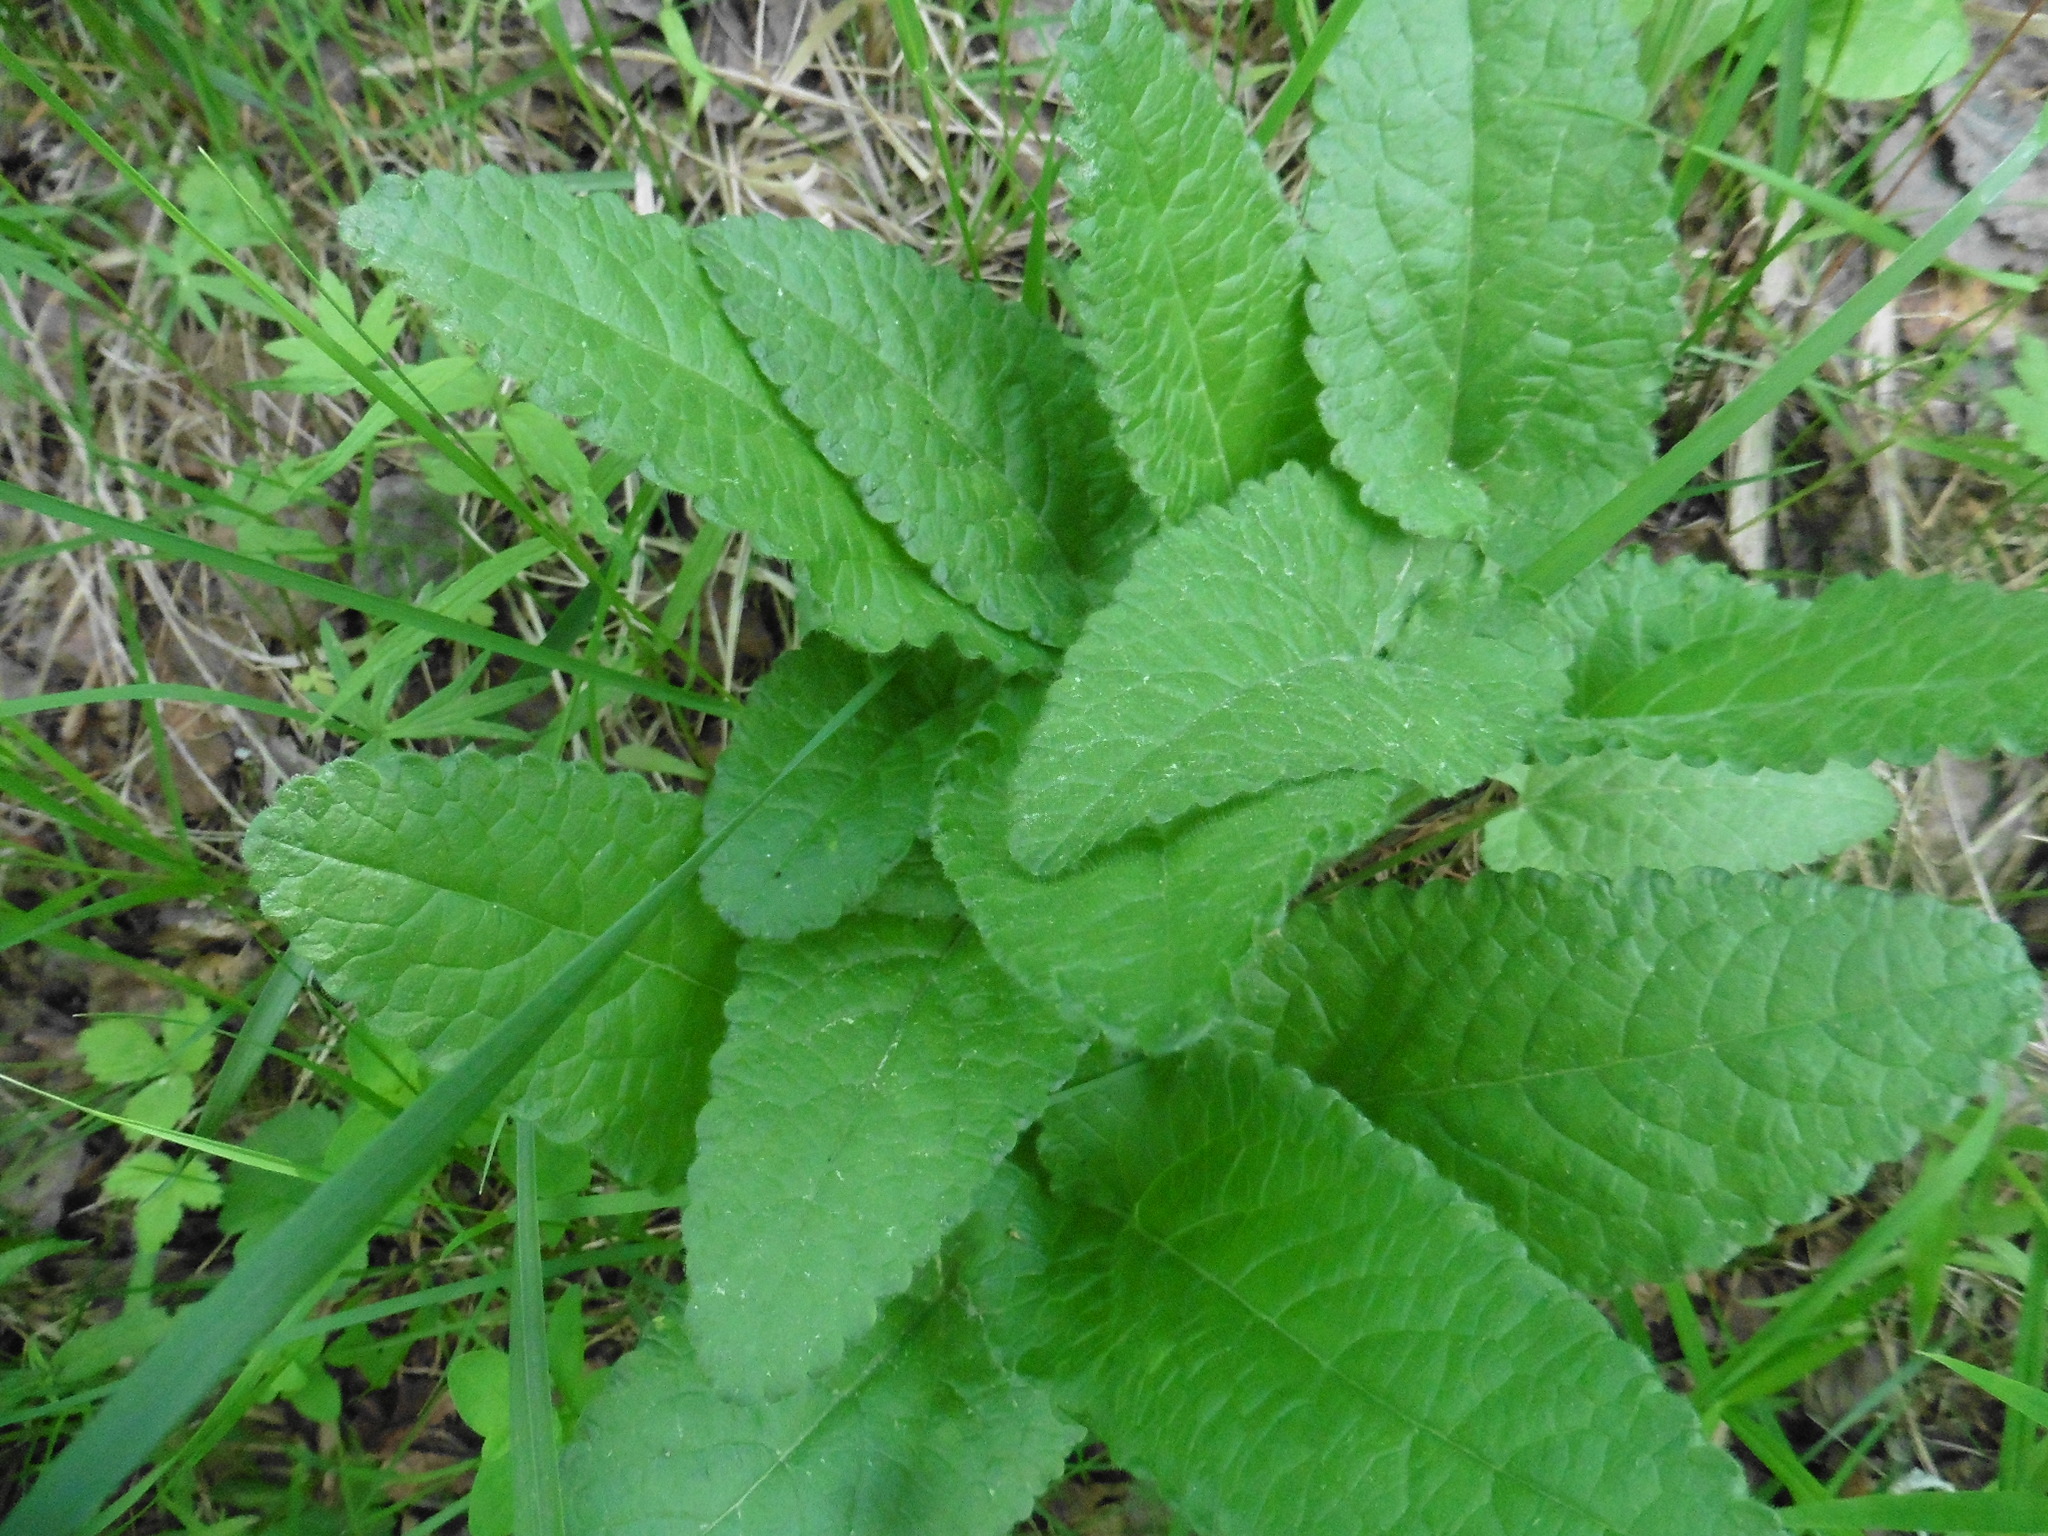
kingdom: Plantae
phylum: Tracheophyta
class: Magnoliopsida
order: Lamiales
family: Lamiaceae
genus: Betonica
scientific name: Betonica officinalis
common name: Bishop's-wort
